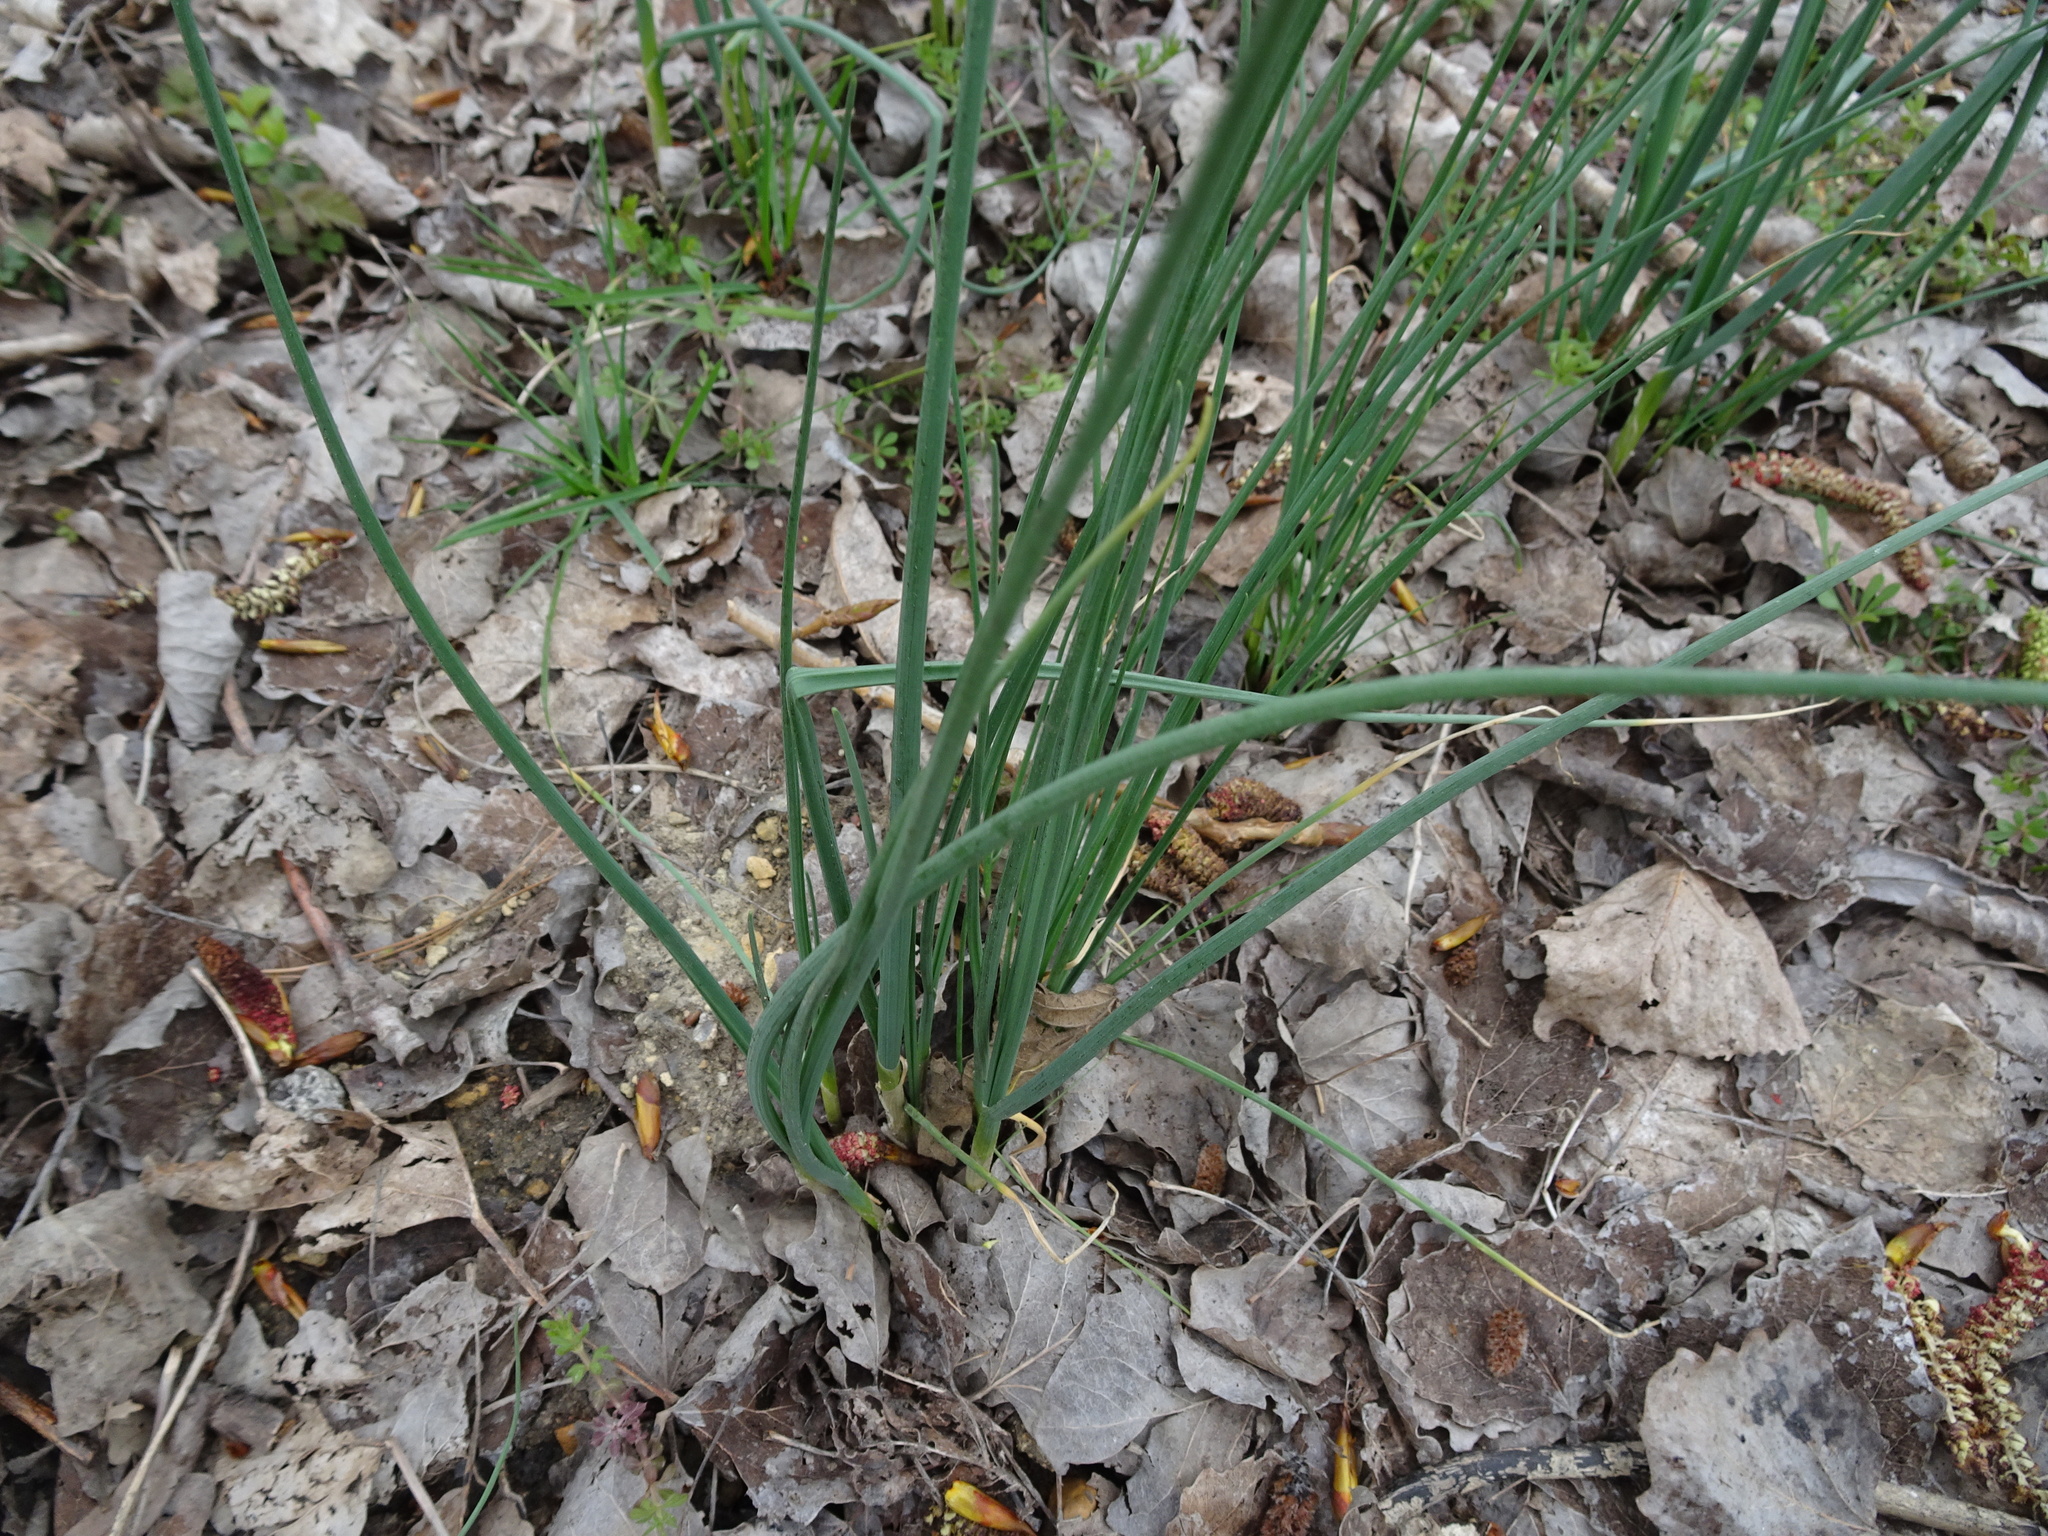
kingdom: Plantae
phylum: Tracheophyta
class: Liliopsida
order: Asparagales
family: Amaryllidaceae
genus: Allium
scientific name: Allium vineale
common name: Crow garlic
